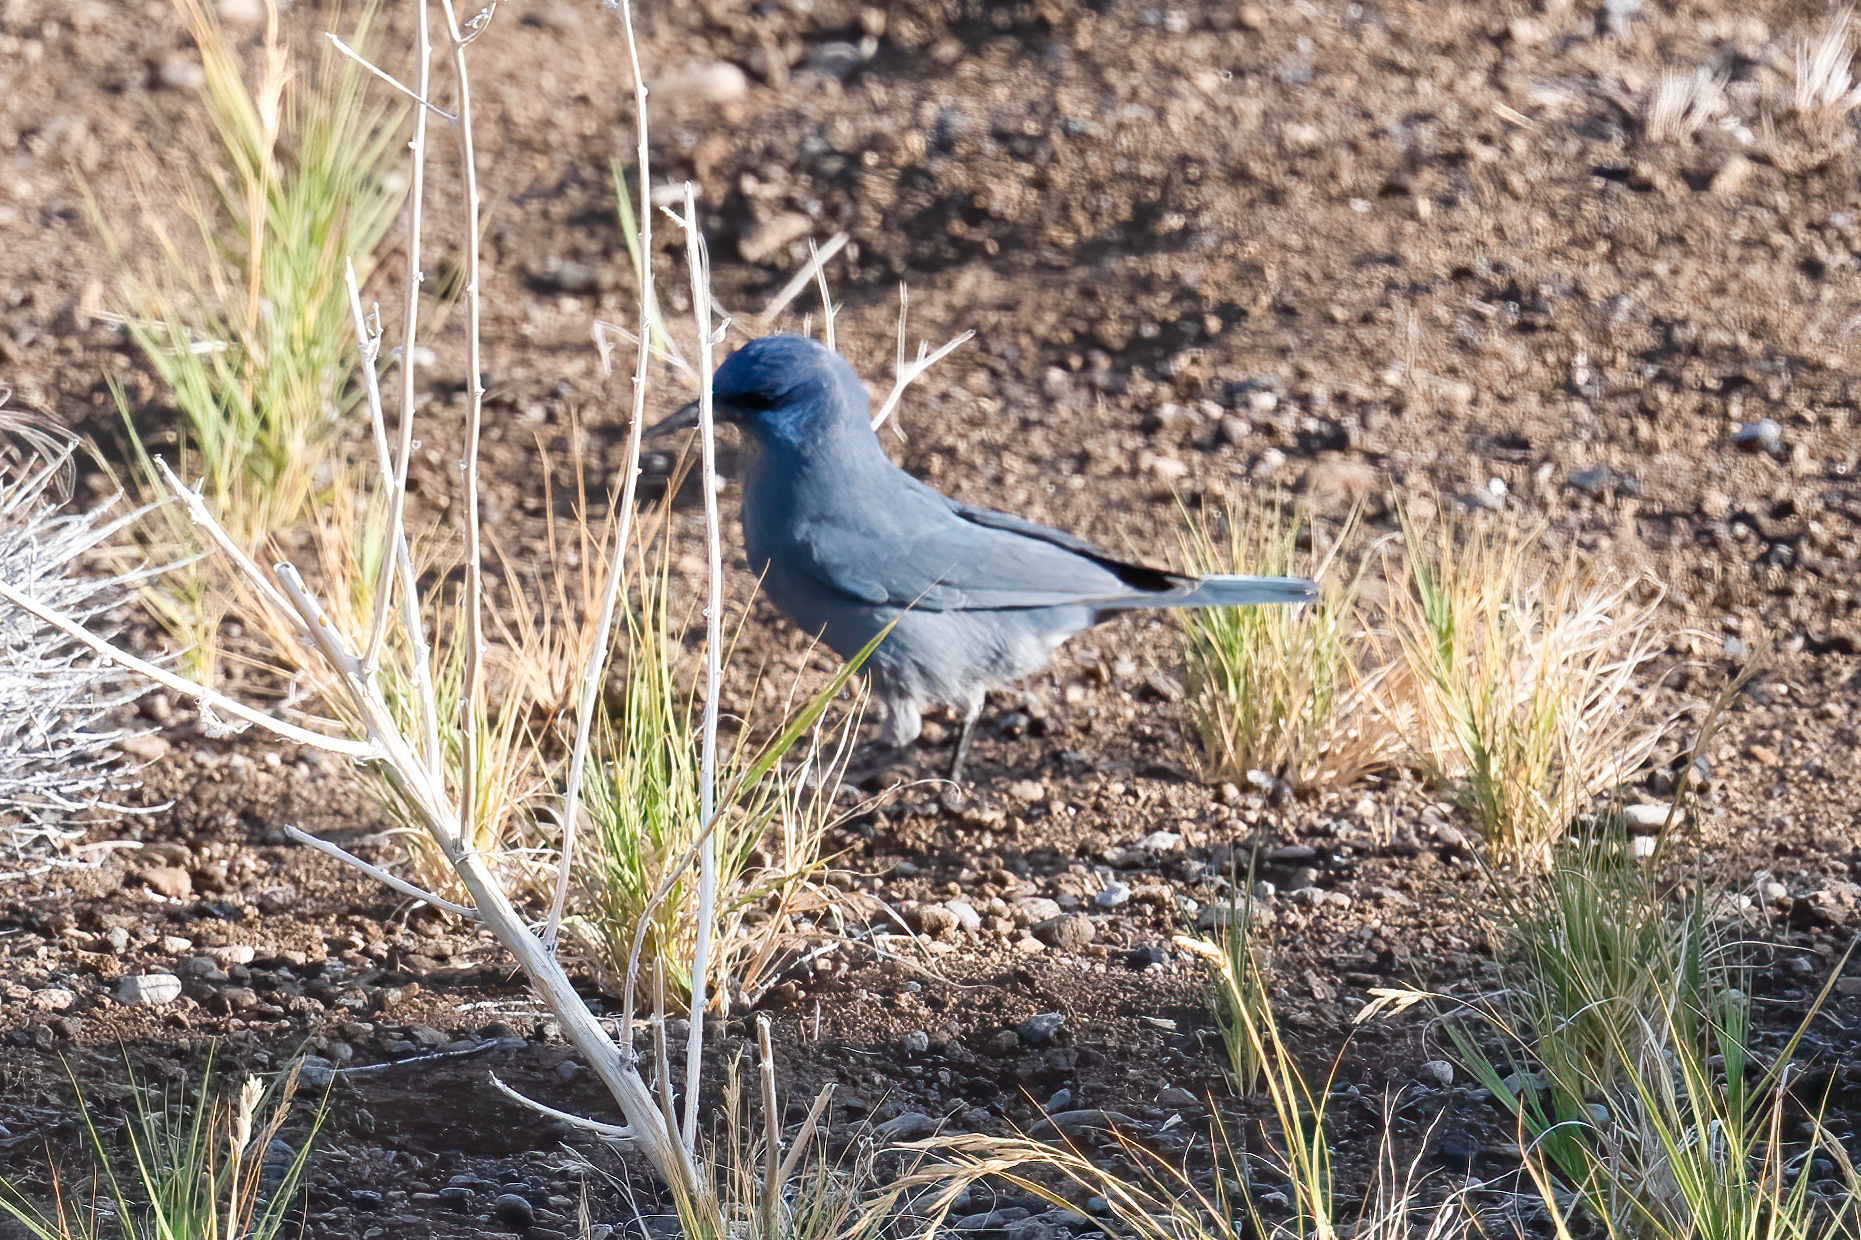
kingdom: Animalia
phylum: Chordata
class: Aves
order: Passeriformes
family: Corvidae
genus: Gymnorhinus
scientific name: Gymnorhinus cyanocephalus
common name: Pinyon jay
